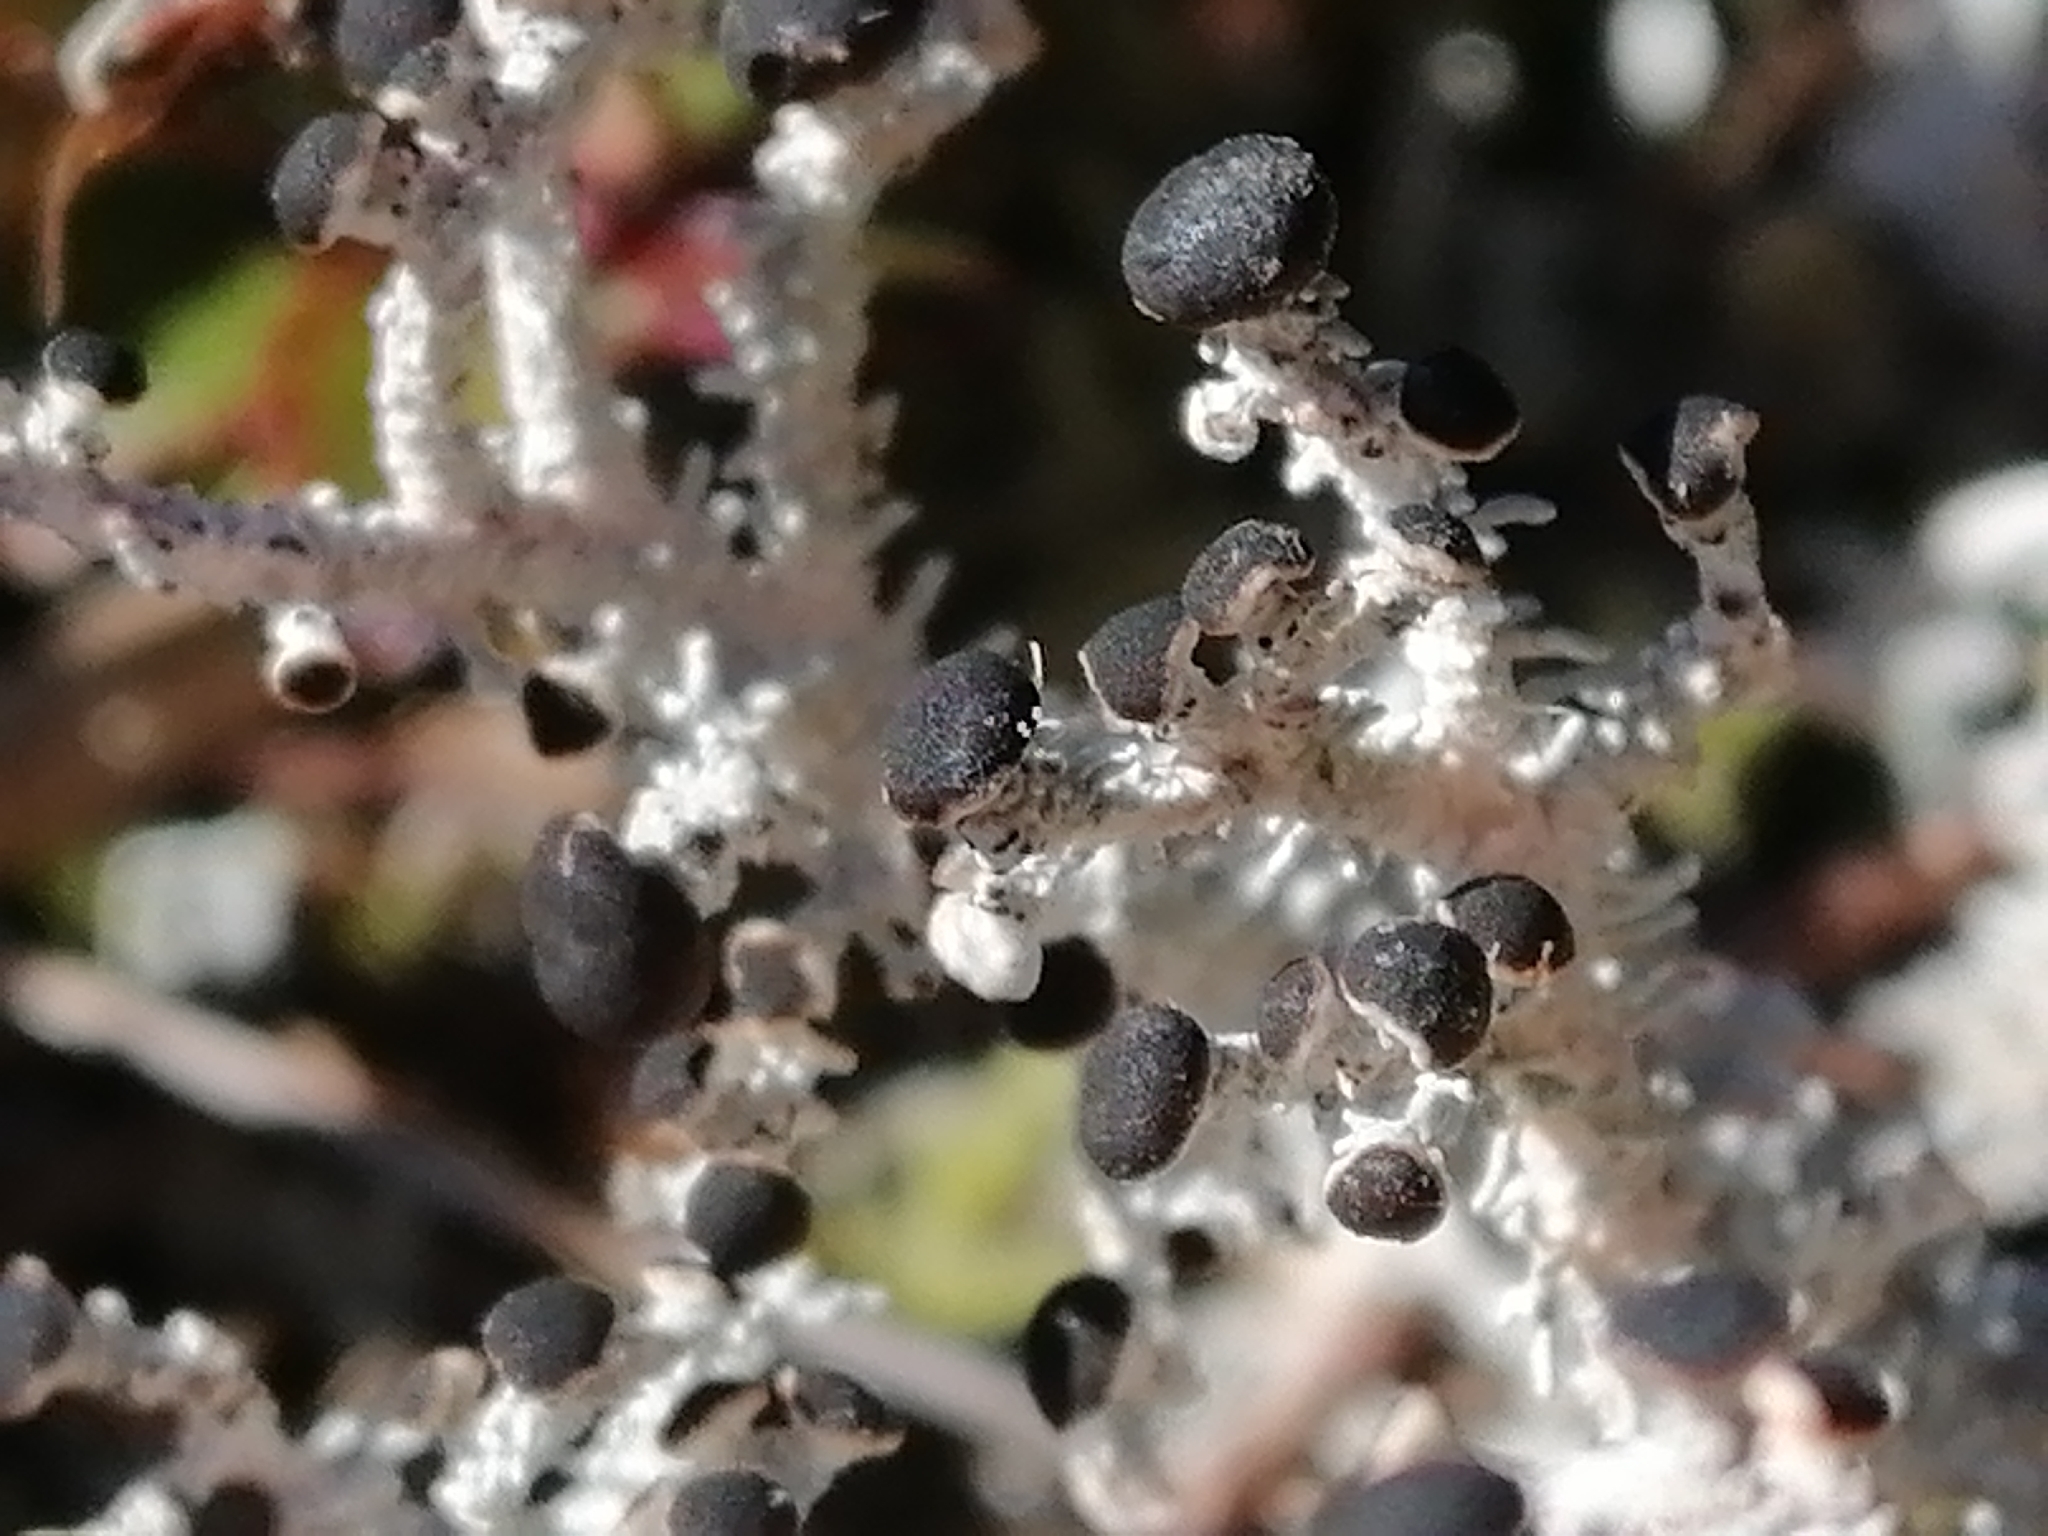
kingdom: Fungi
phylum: Ascomycota
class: Lecanoromycetes
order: Lecanorales
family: Stereocaulaceae
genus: Stereocaulon
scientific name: Stereocaulon ramulosum
